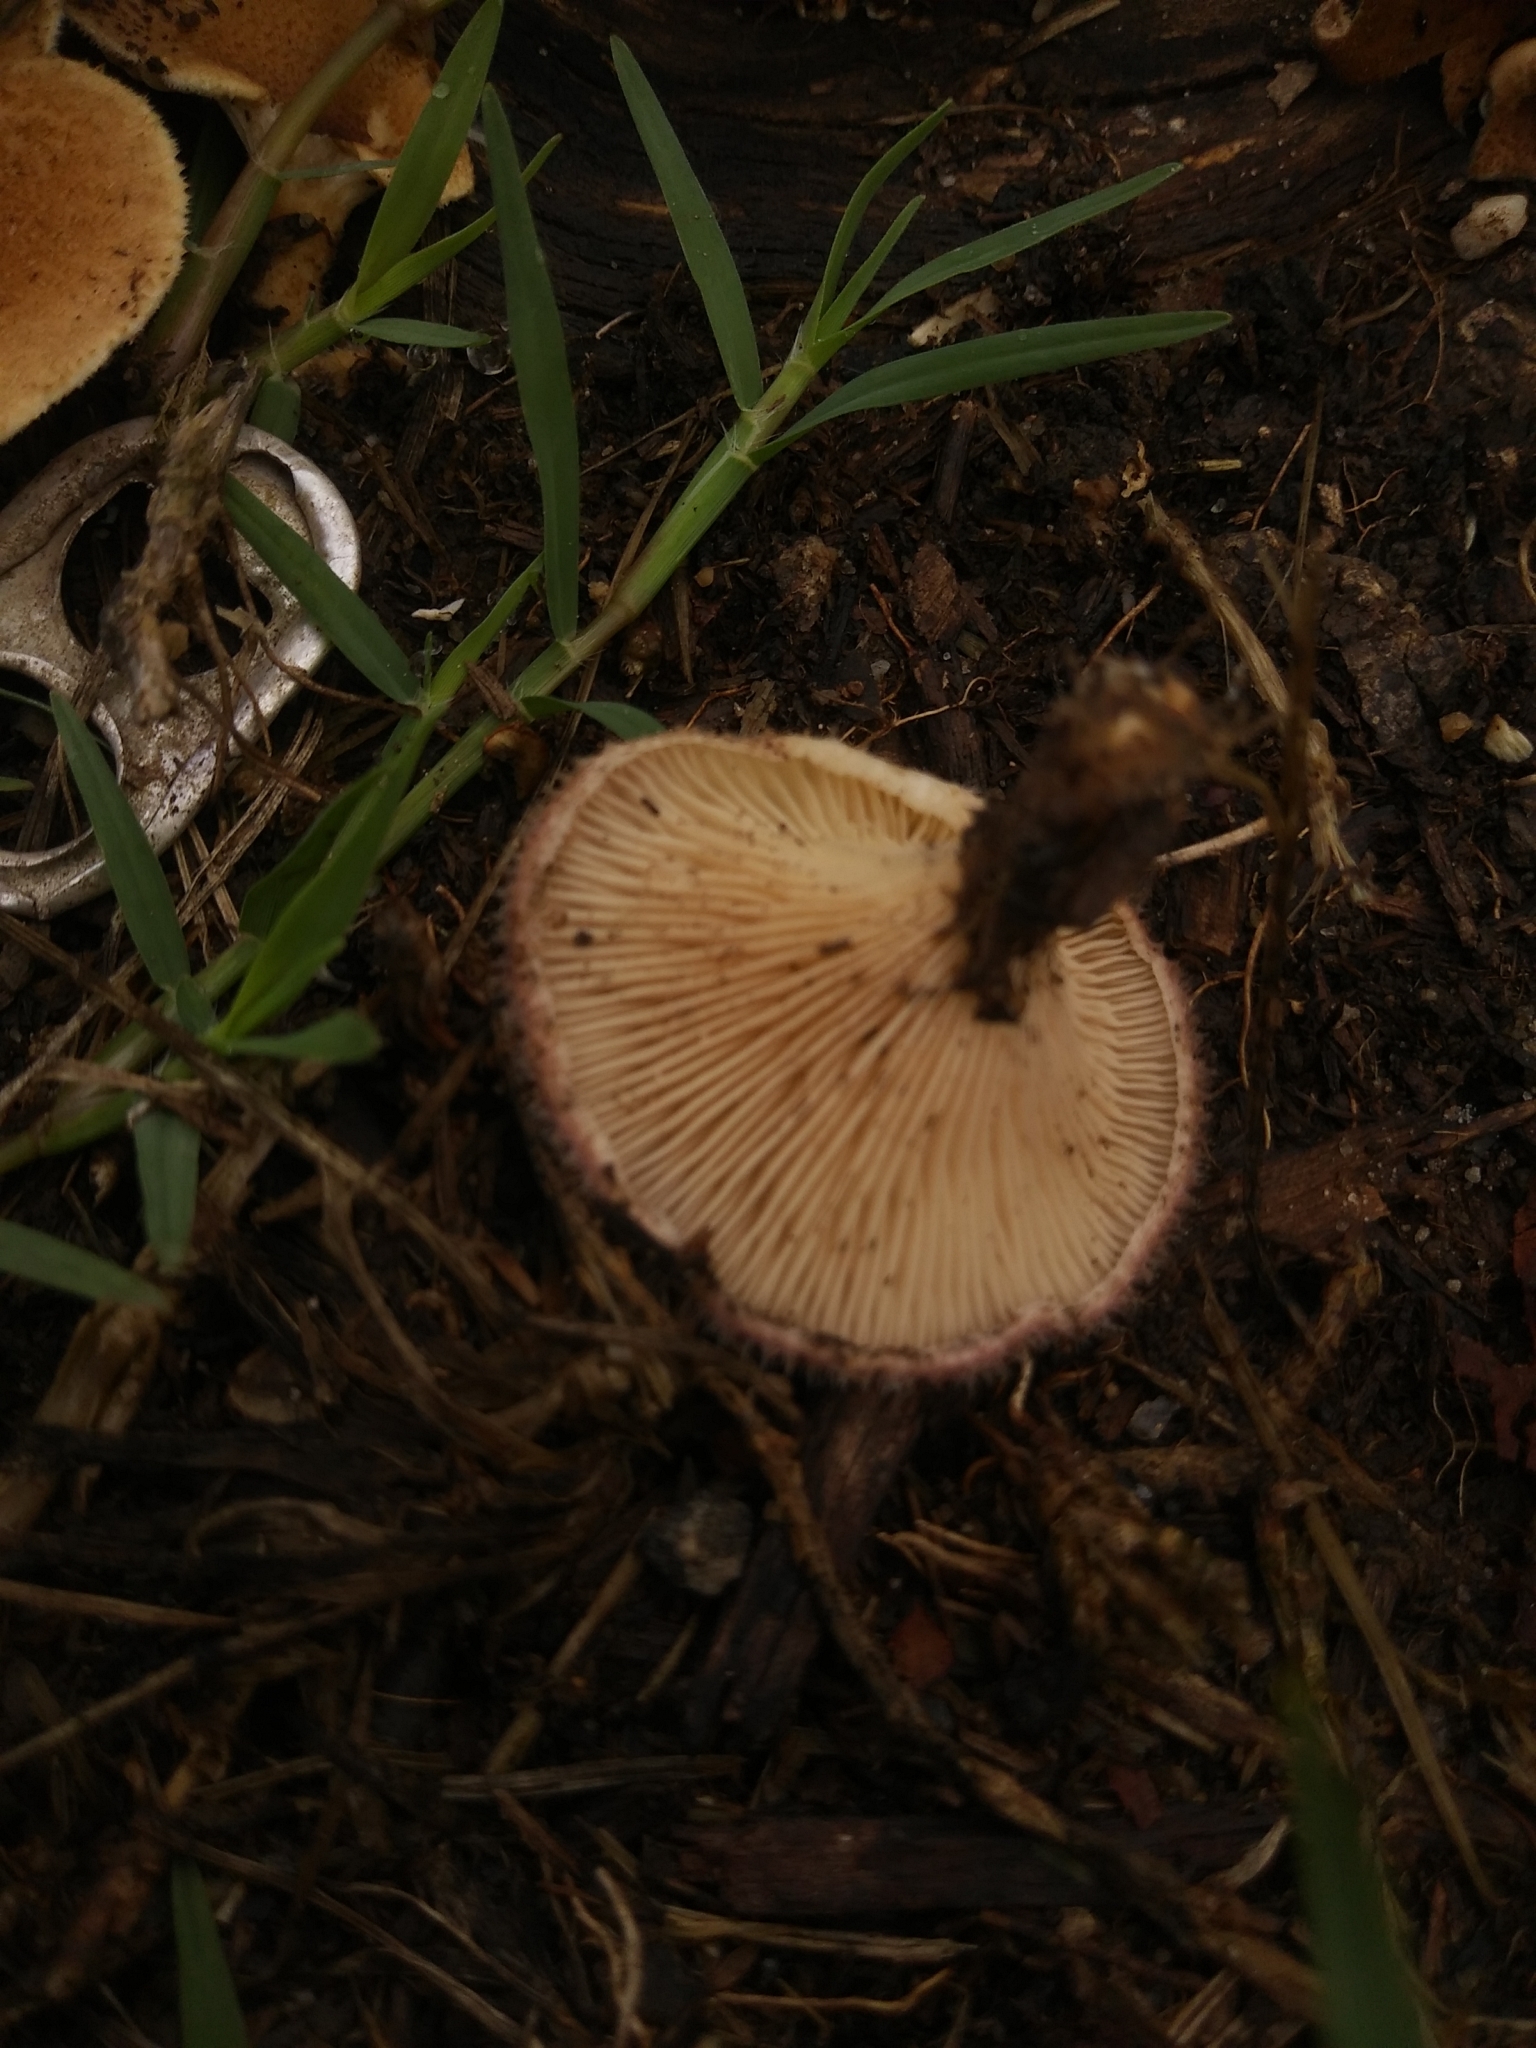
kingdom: Fungi
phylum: Basidiomycota
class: Agaricomycetes
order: Polyporales
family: Panaceae
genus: Panus
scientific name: Panus neostrigosus
